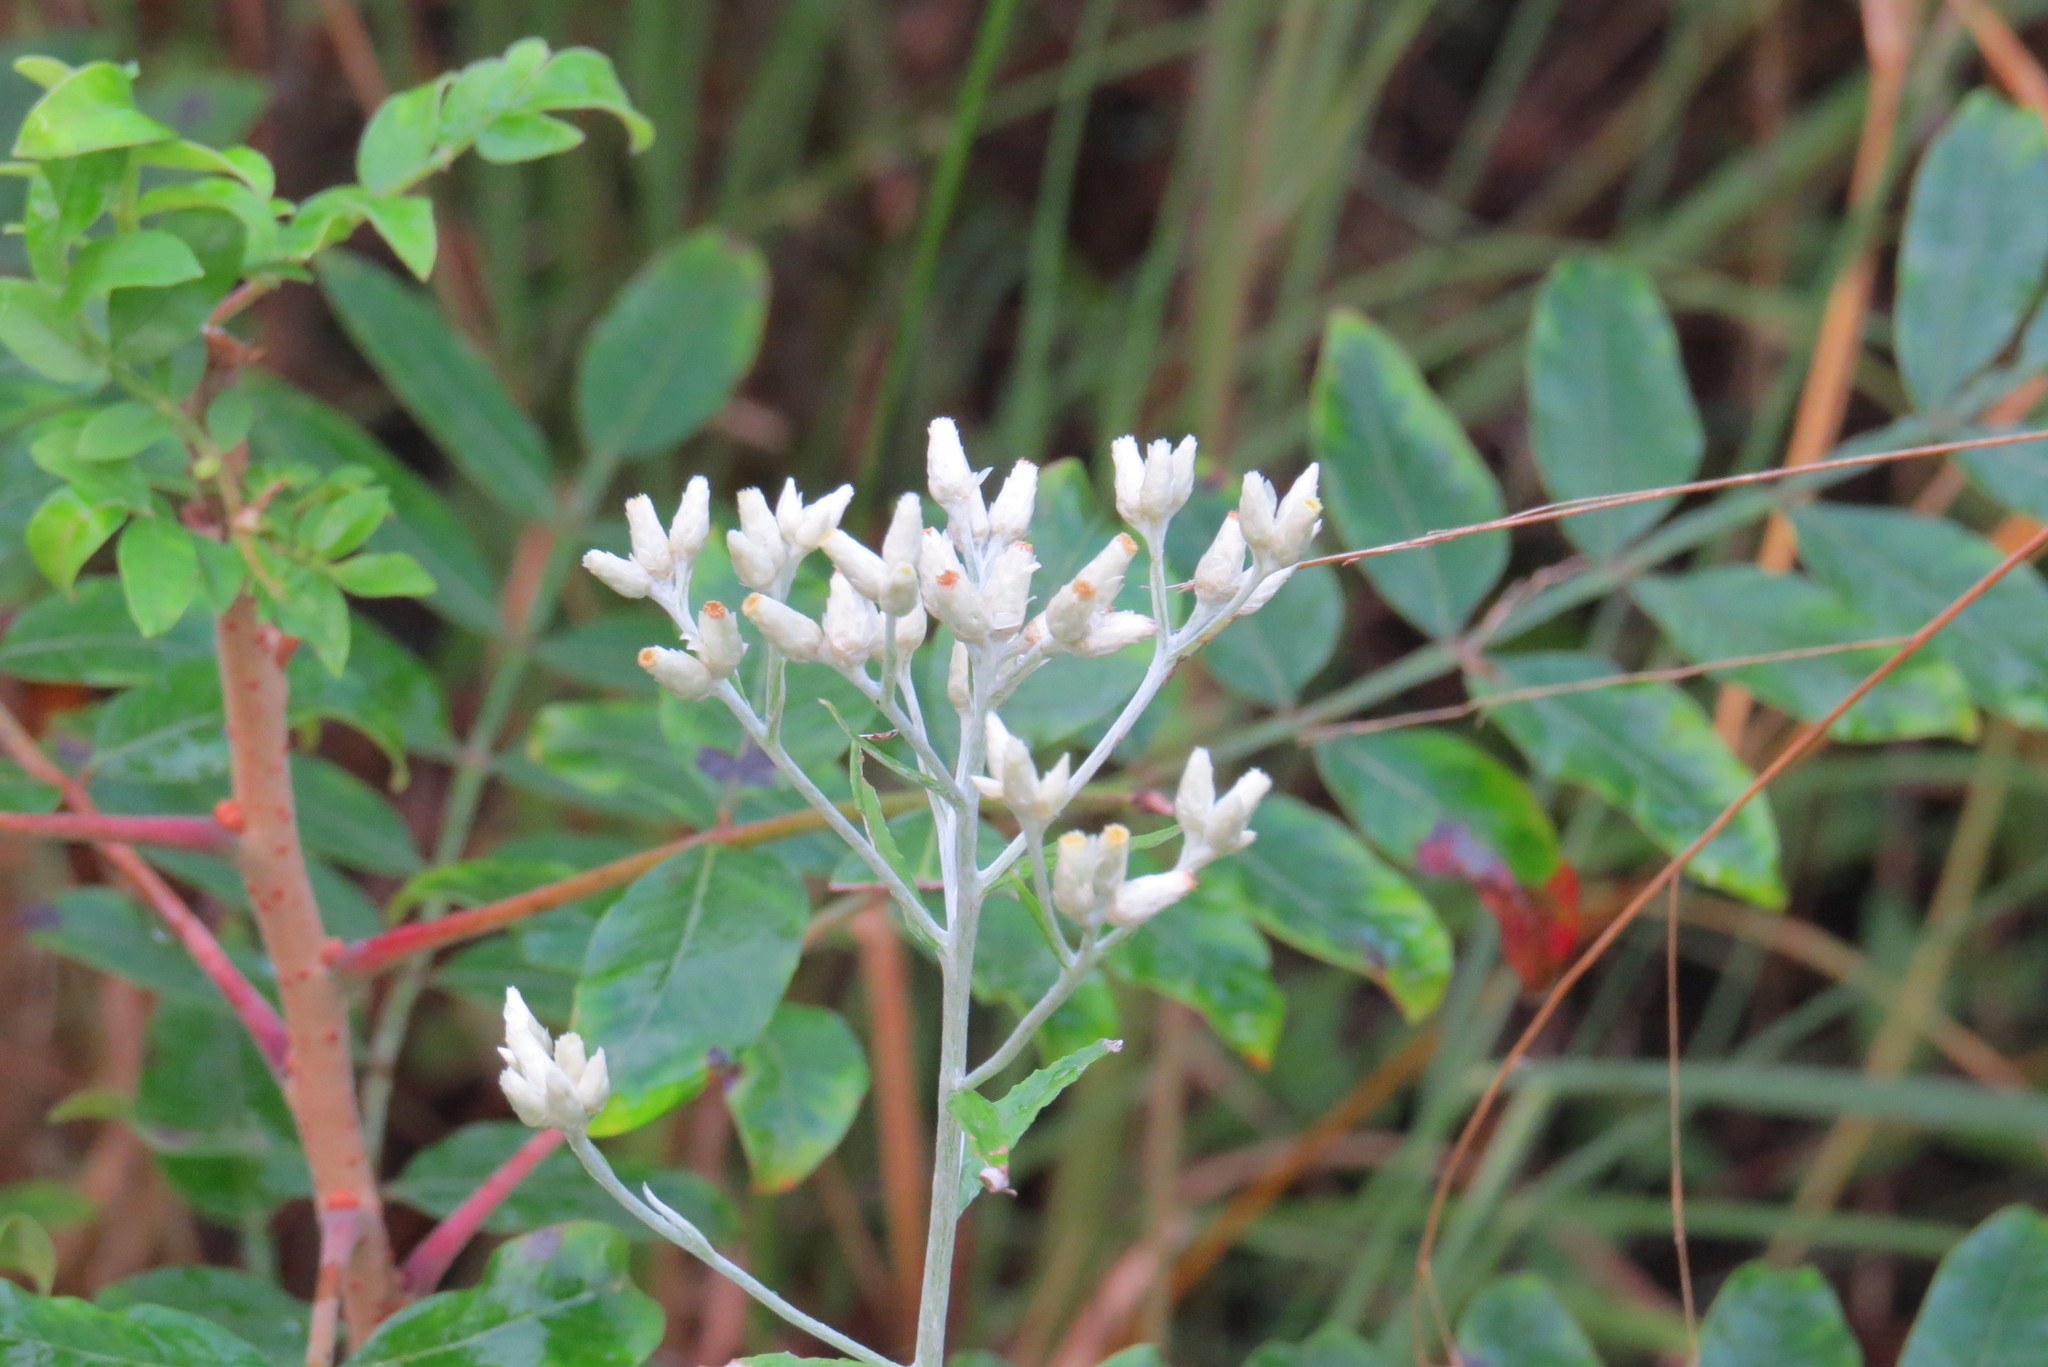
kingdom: Plantae
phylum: Tracheophyta
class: Magnoliopsida
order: Asterales
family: Asteraceae
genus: Pseudognaphalium
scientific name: Pseudognaphalium obtusifolium
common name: Eastern rabbit-tobacco
